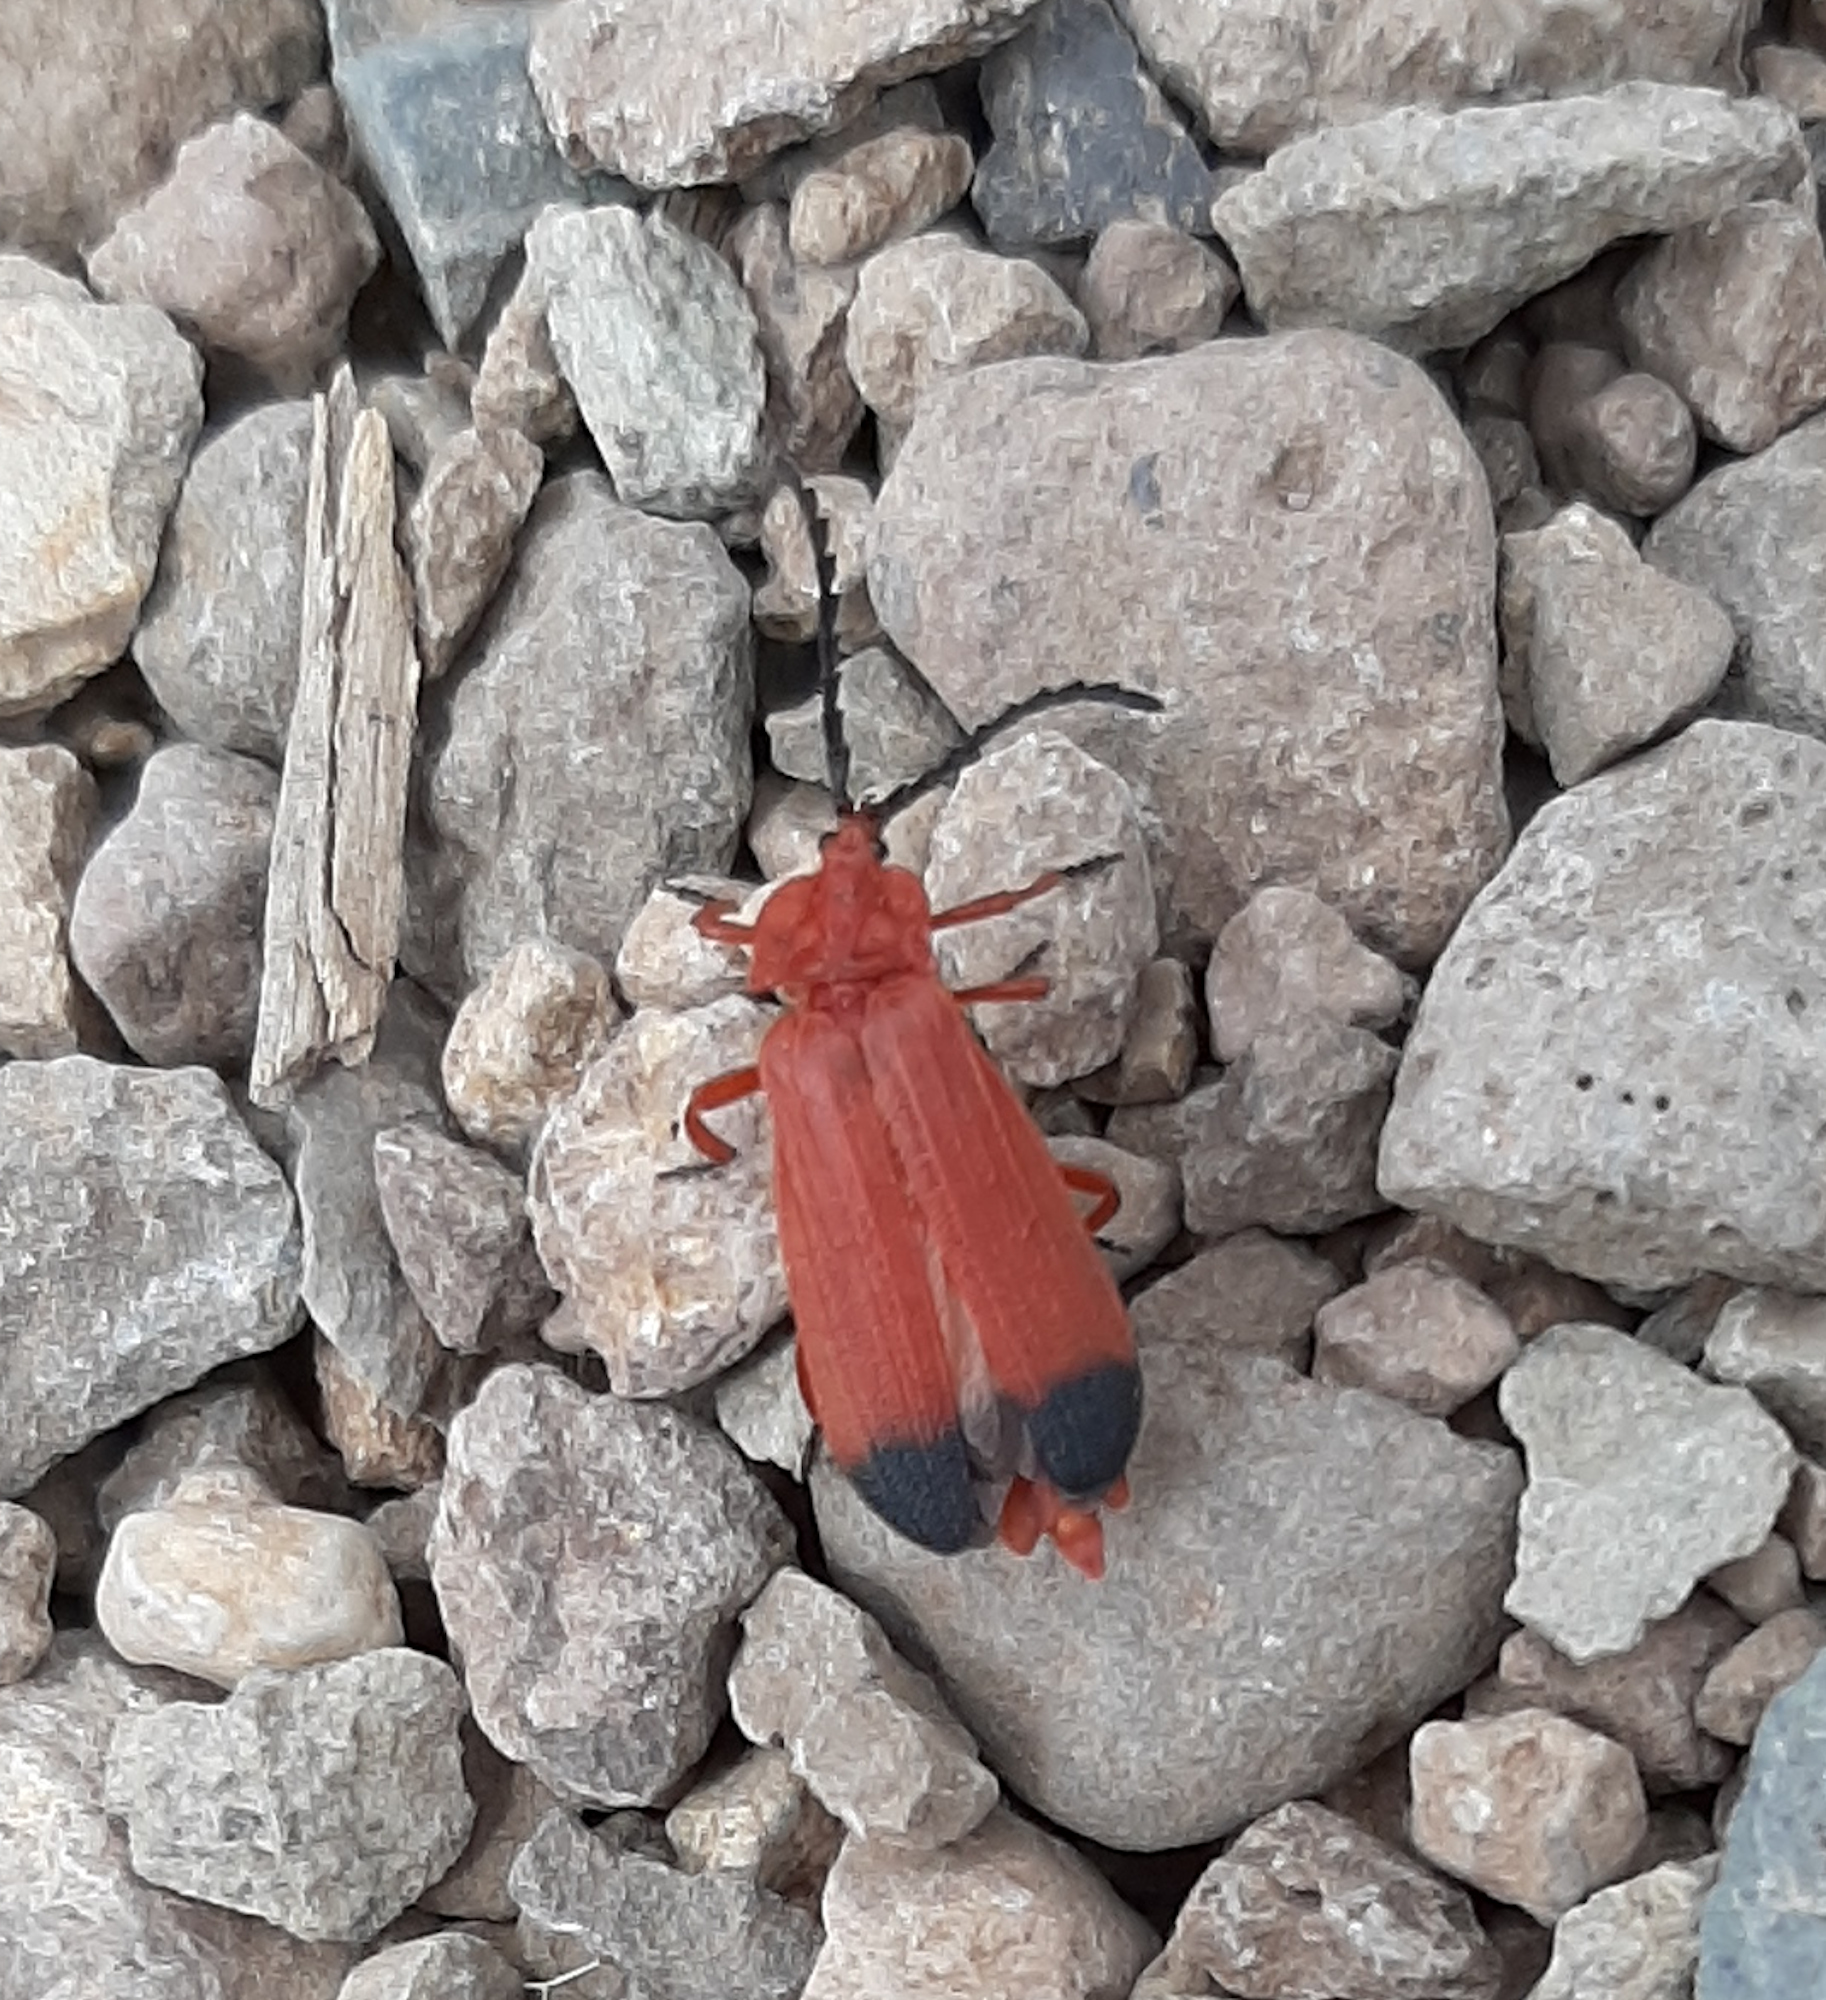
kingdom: Animalia
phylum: Arthropoda
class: Insecta
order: Coleoptera
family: Lycidae
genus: Lycus
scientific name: Lycus sanguineus
